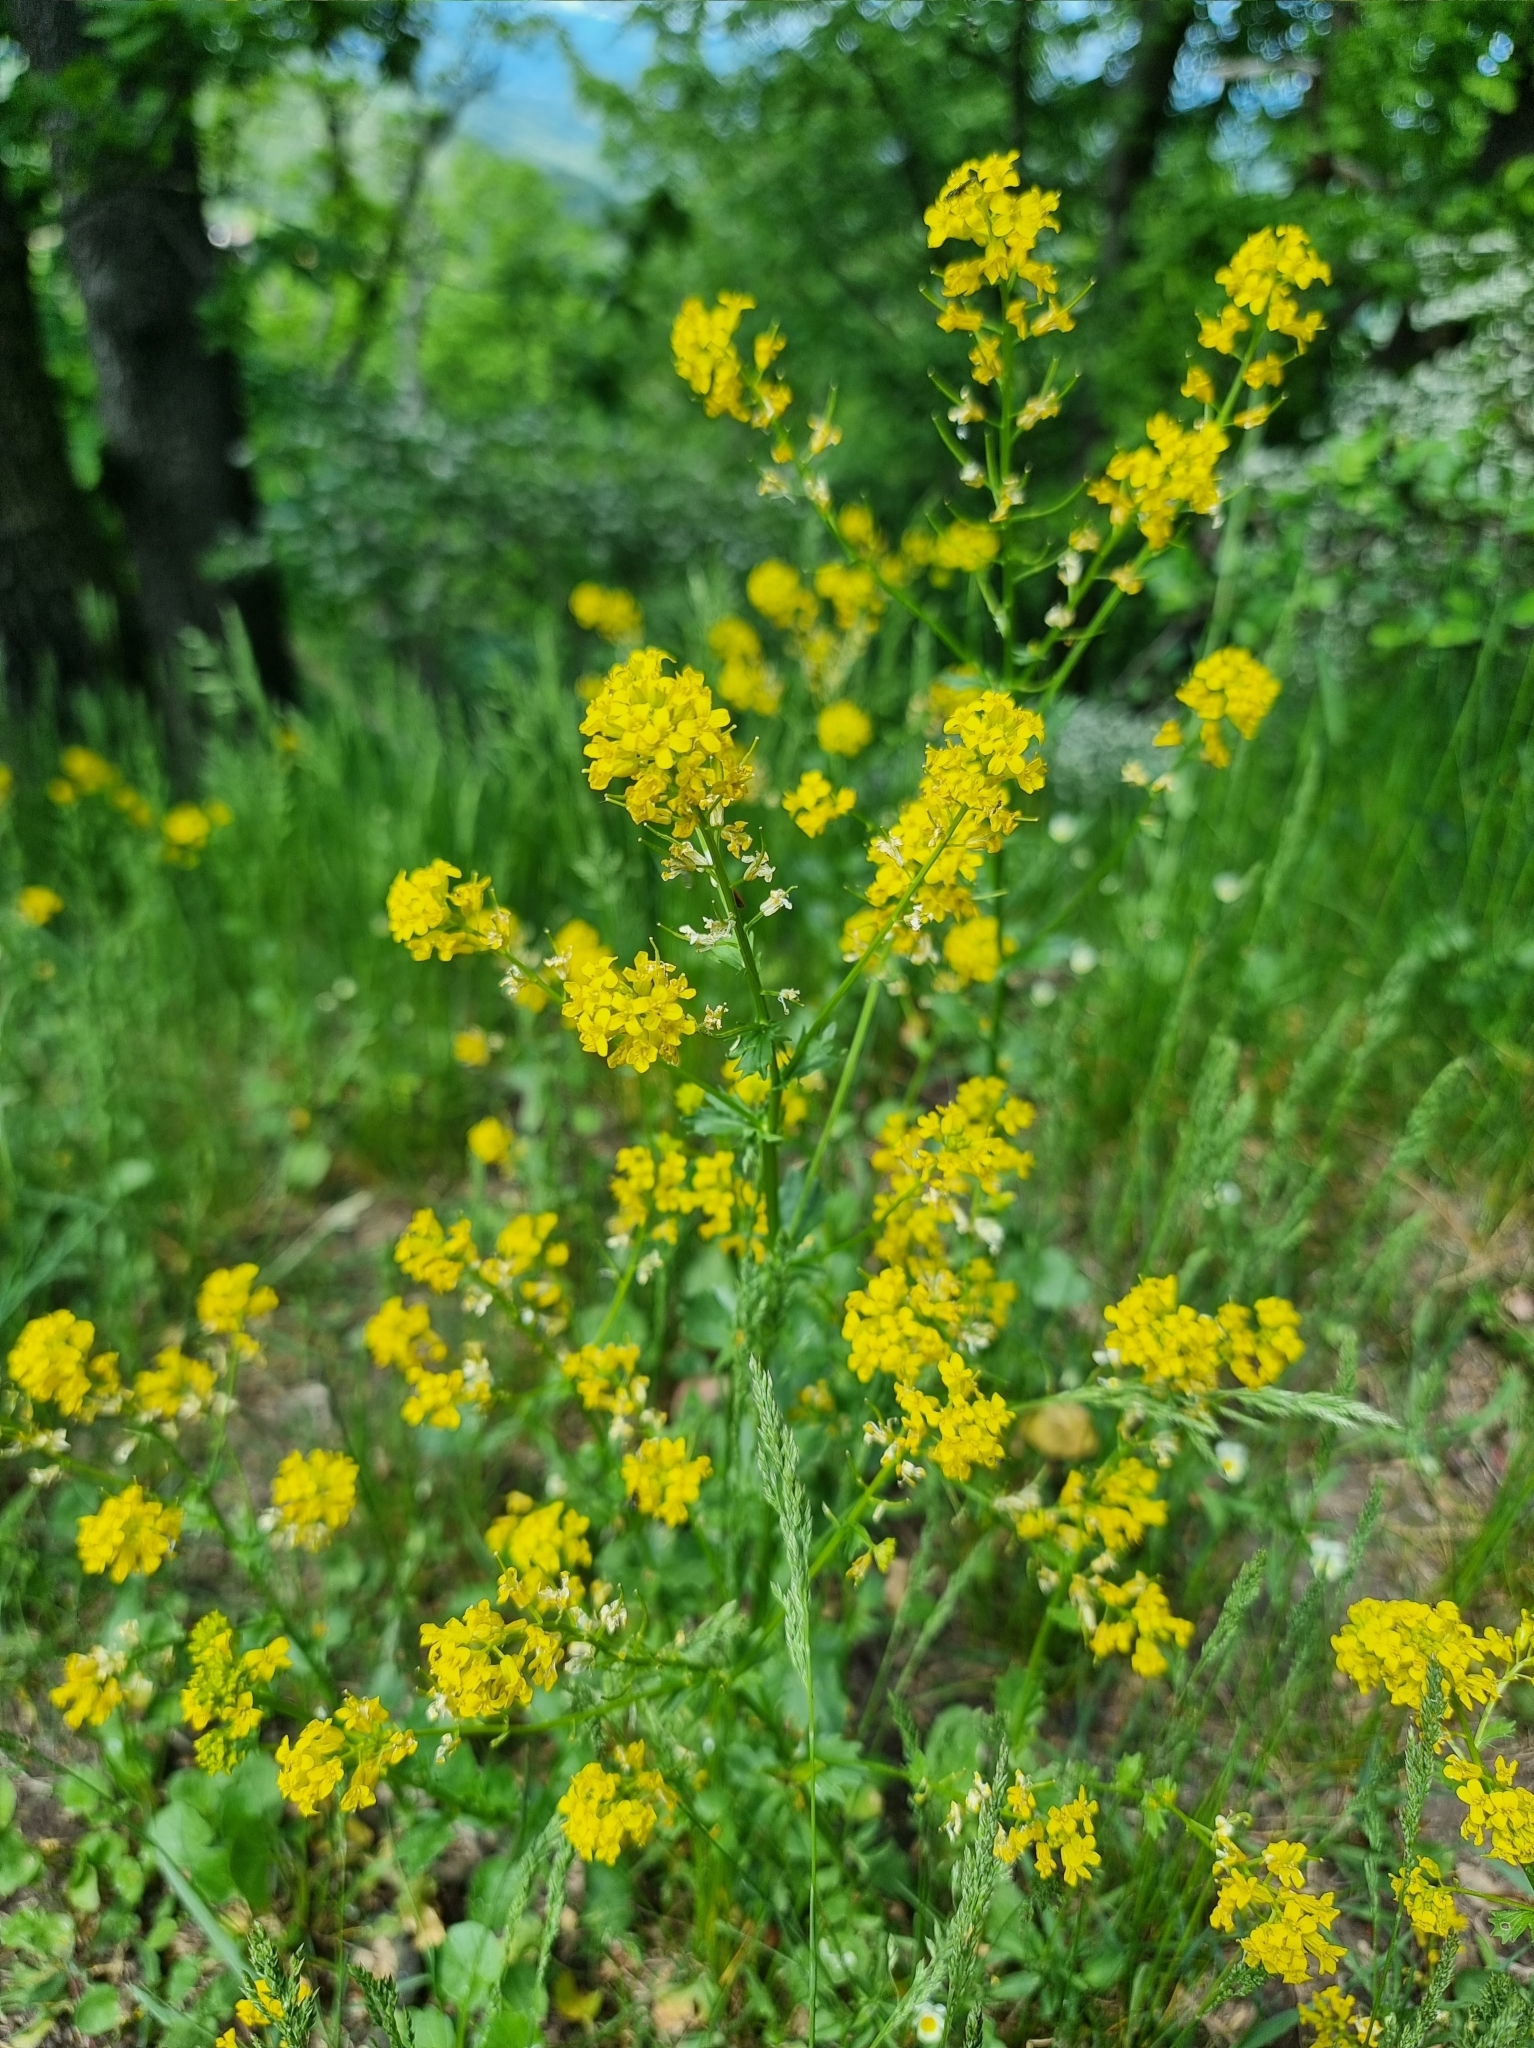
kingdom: Plantae
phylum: Tracheophyta
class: Magnoliopsida
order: Brassicales
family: Brassicaceae
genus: Barbarea
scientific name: Barbarea vulgaris
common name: Cressy-greens
